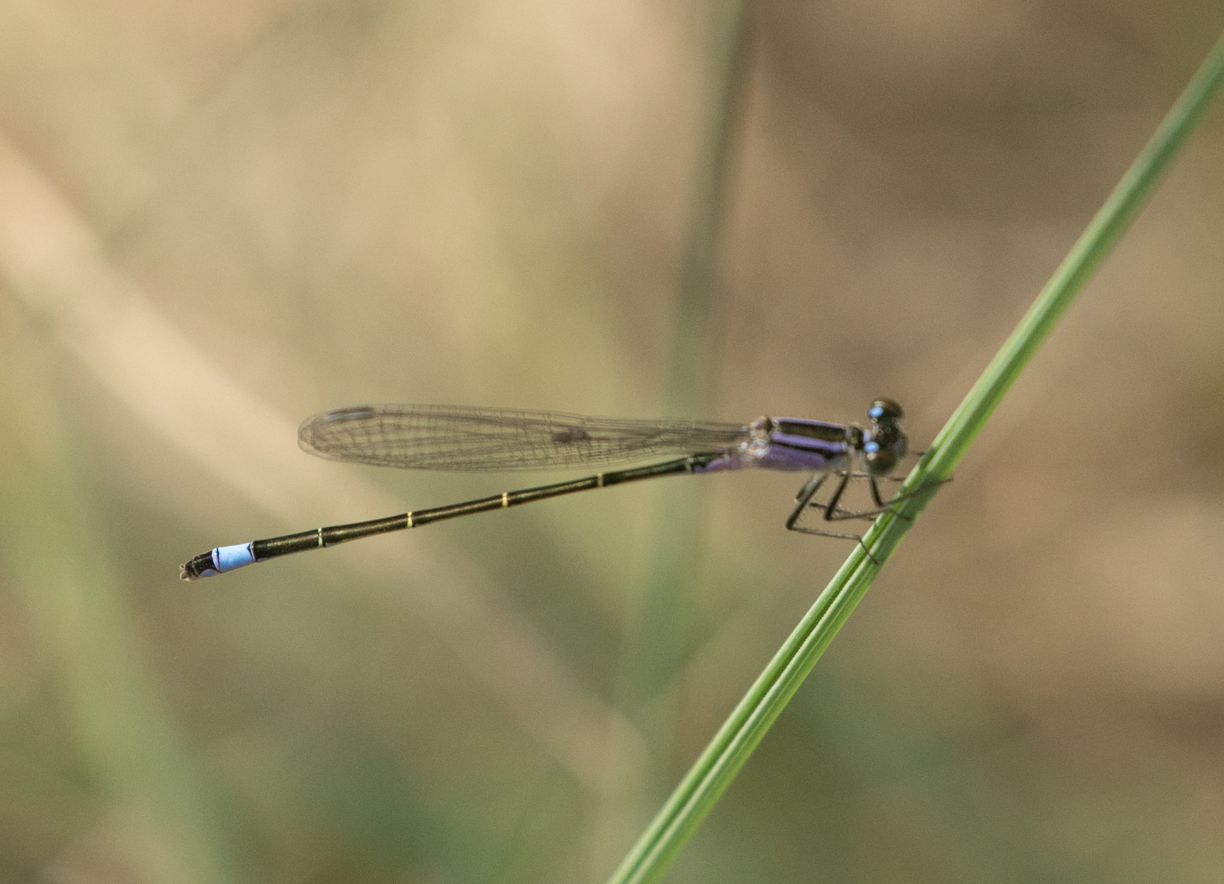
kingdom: Animalia
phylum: Arthropoda
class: Insecta
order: Odonata
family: Coenagrionidae
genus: Ischnura
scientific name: Ischnura elegans
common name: Blue-tailed damselfly
